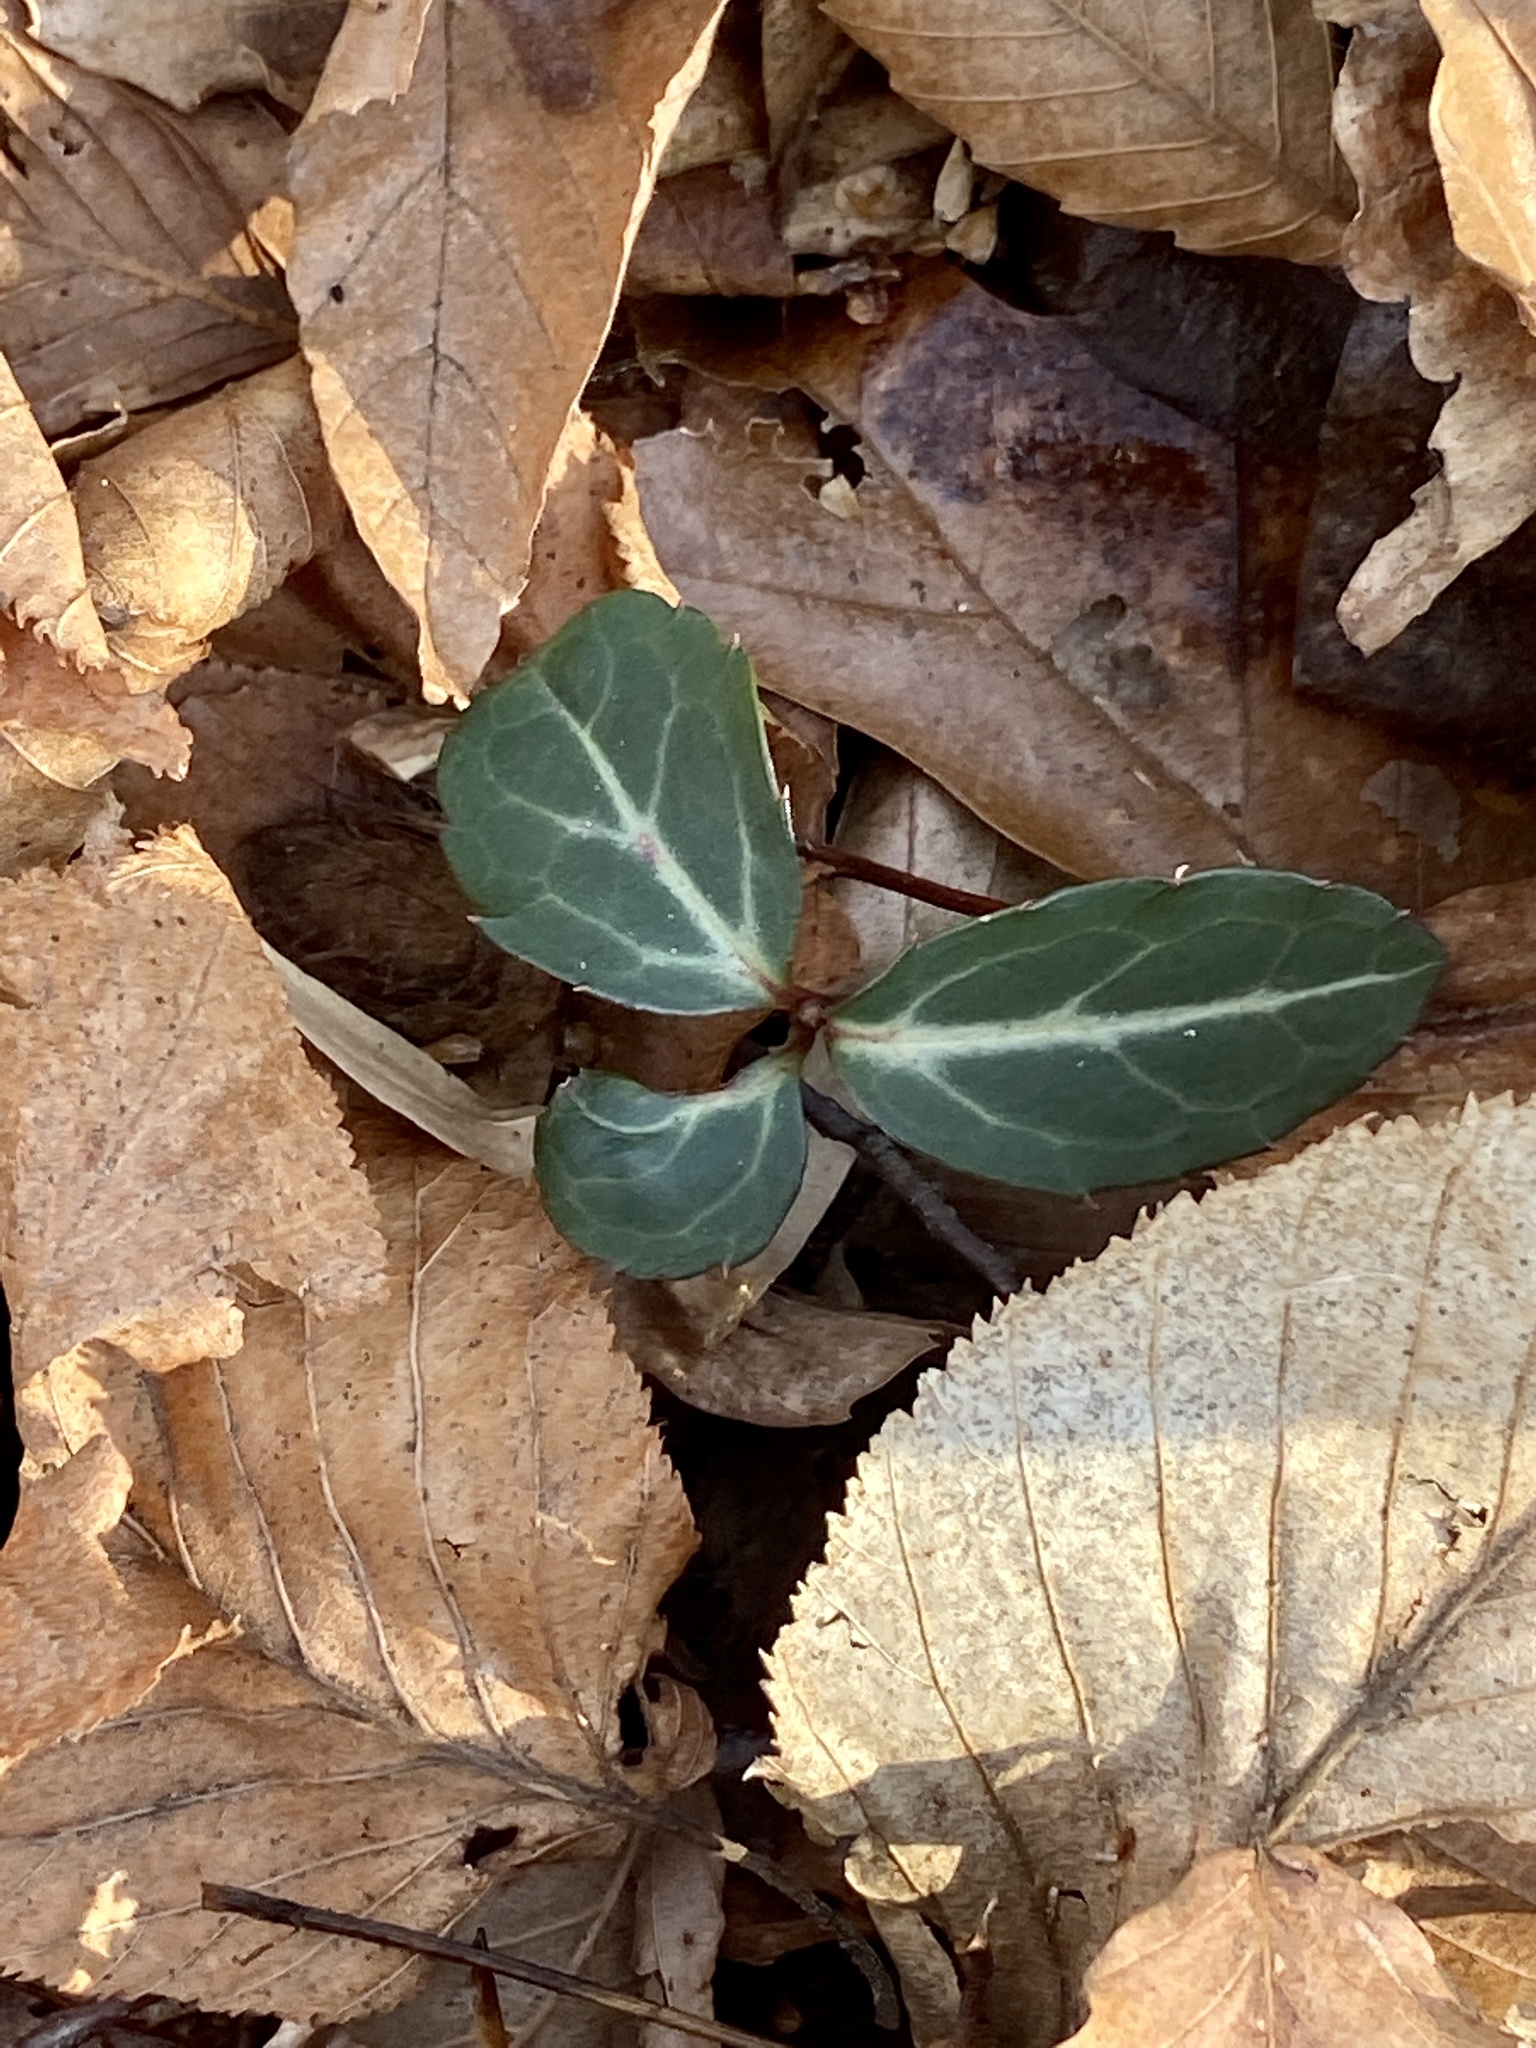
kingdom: Plantae
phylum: Tracheophyta
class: Magnoliopsida
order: Ericales
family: Ericaceae
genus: Chimaphila
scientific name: Chimaphila maculata
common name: Spotted pipsissewa
